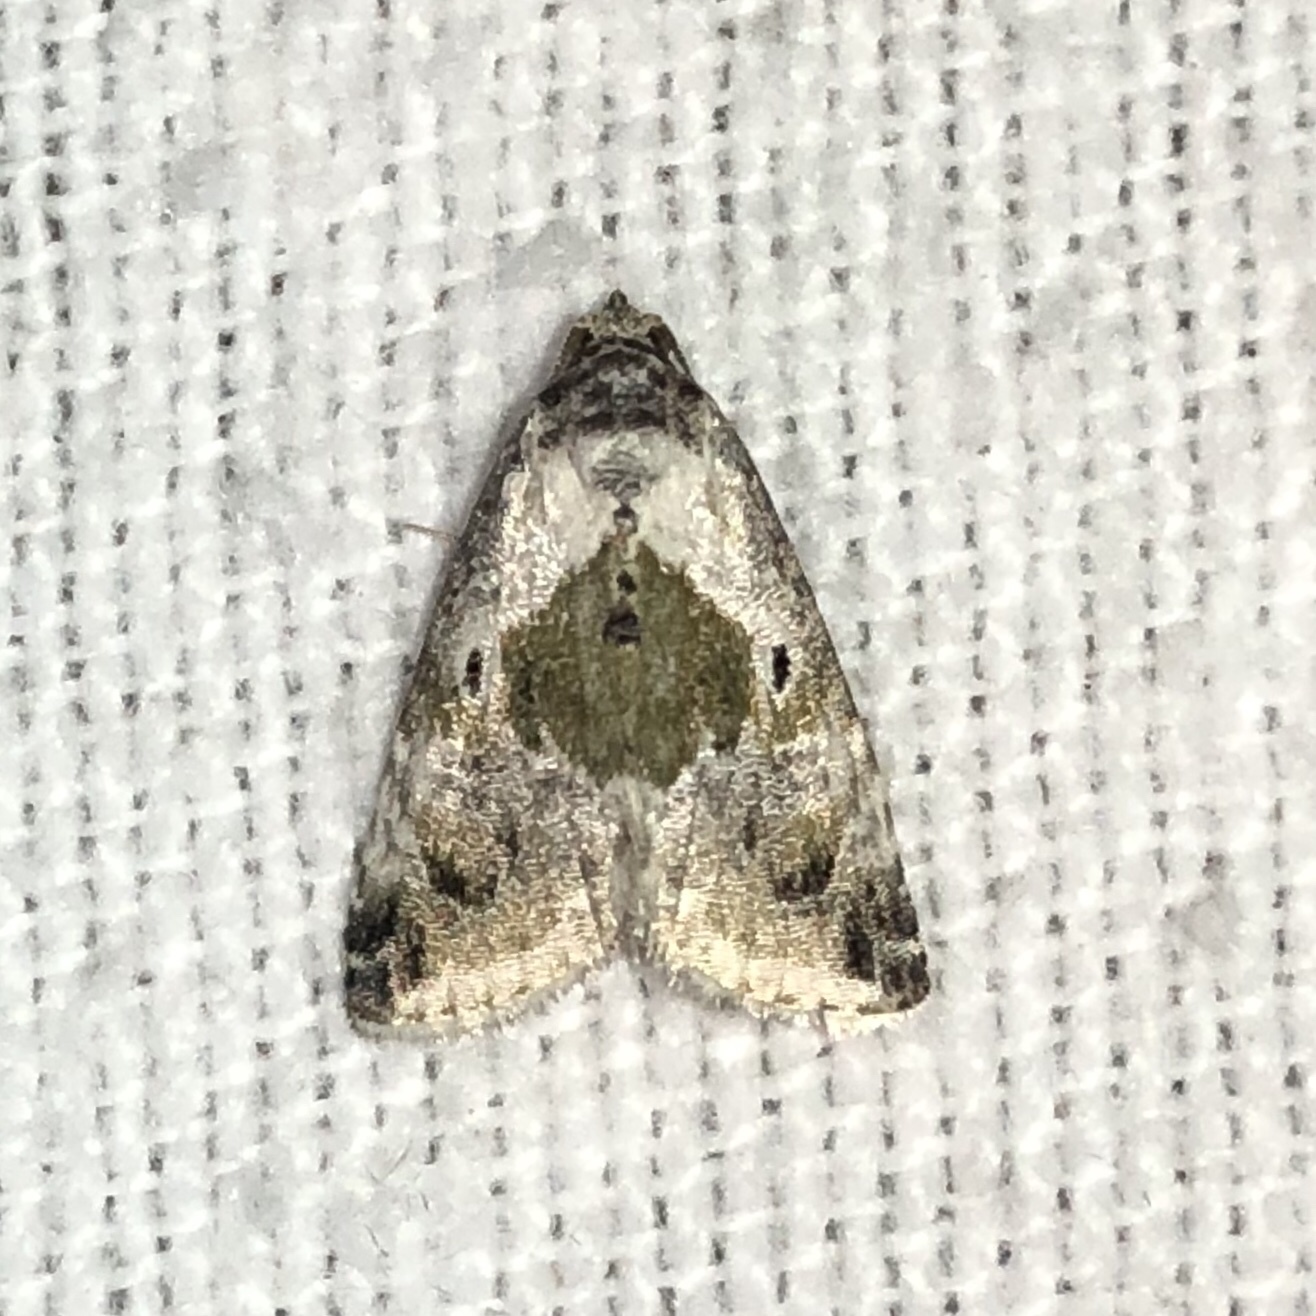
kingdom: Animalia
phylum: Arthropoda
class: Insecta
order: Lepidoptera
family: Noctuidae
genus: Maliattha
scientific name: Maliattha synochitis
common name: Black-dotted glyph
